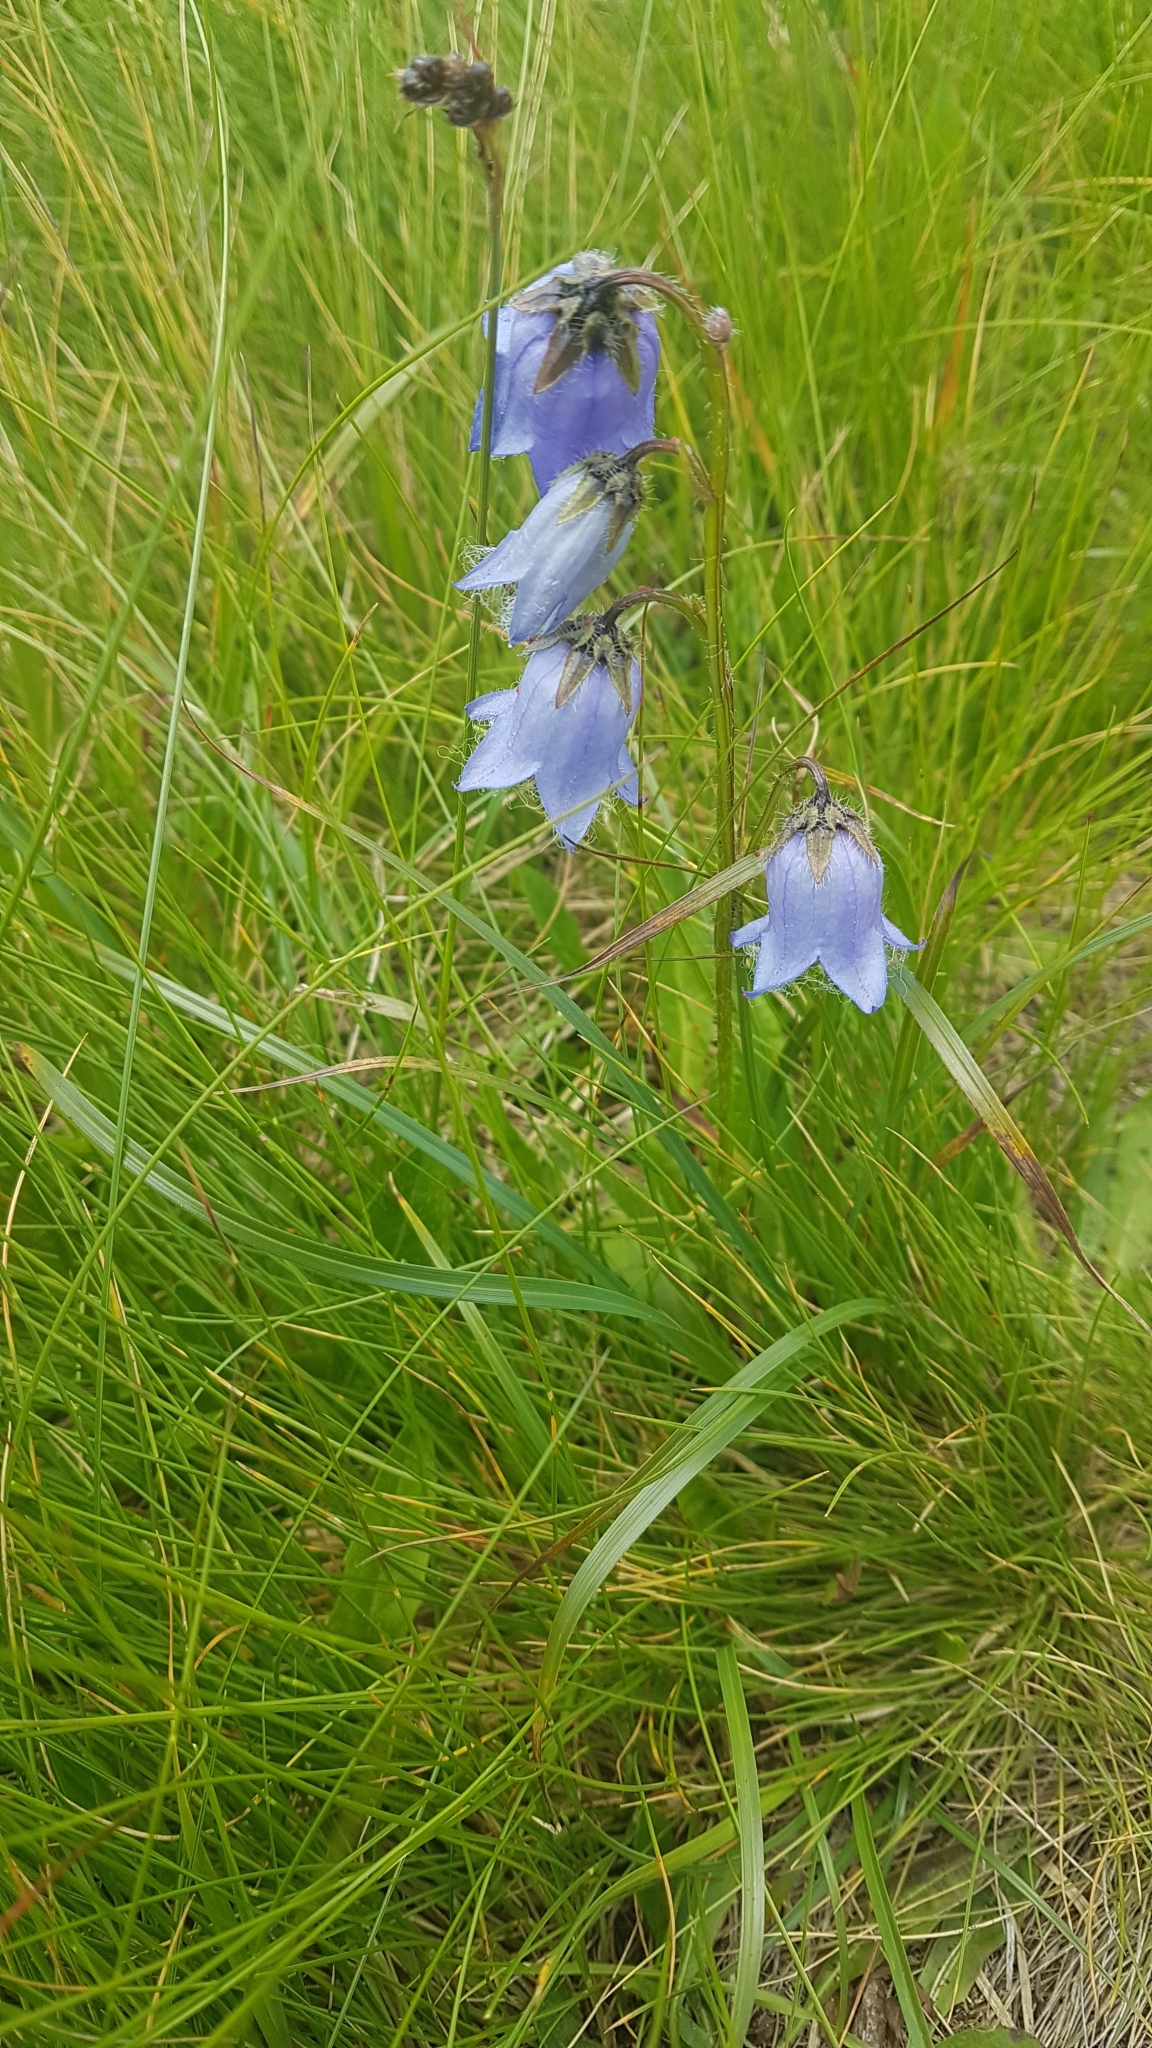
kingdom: Plantae
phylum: Tracheophyta
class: Magnoliopsida
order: Asterales
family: Campanulaceae
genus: Campanula
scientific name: Campanula barbata
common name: Bearded bellflower
